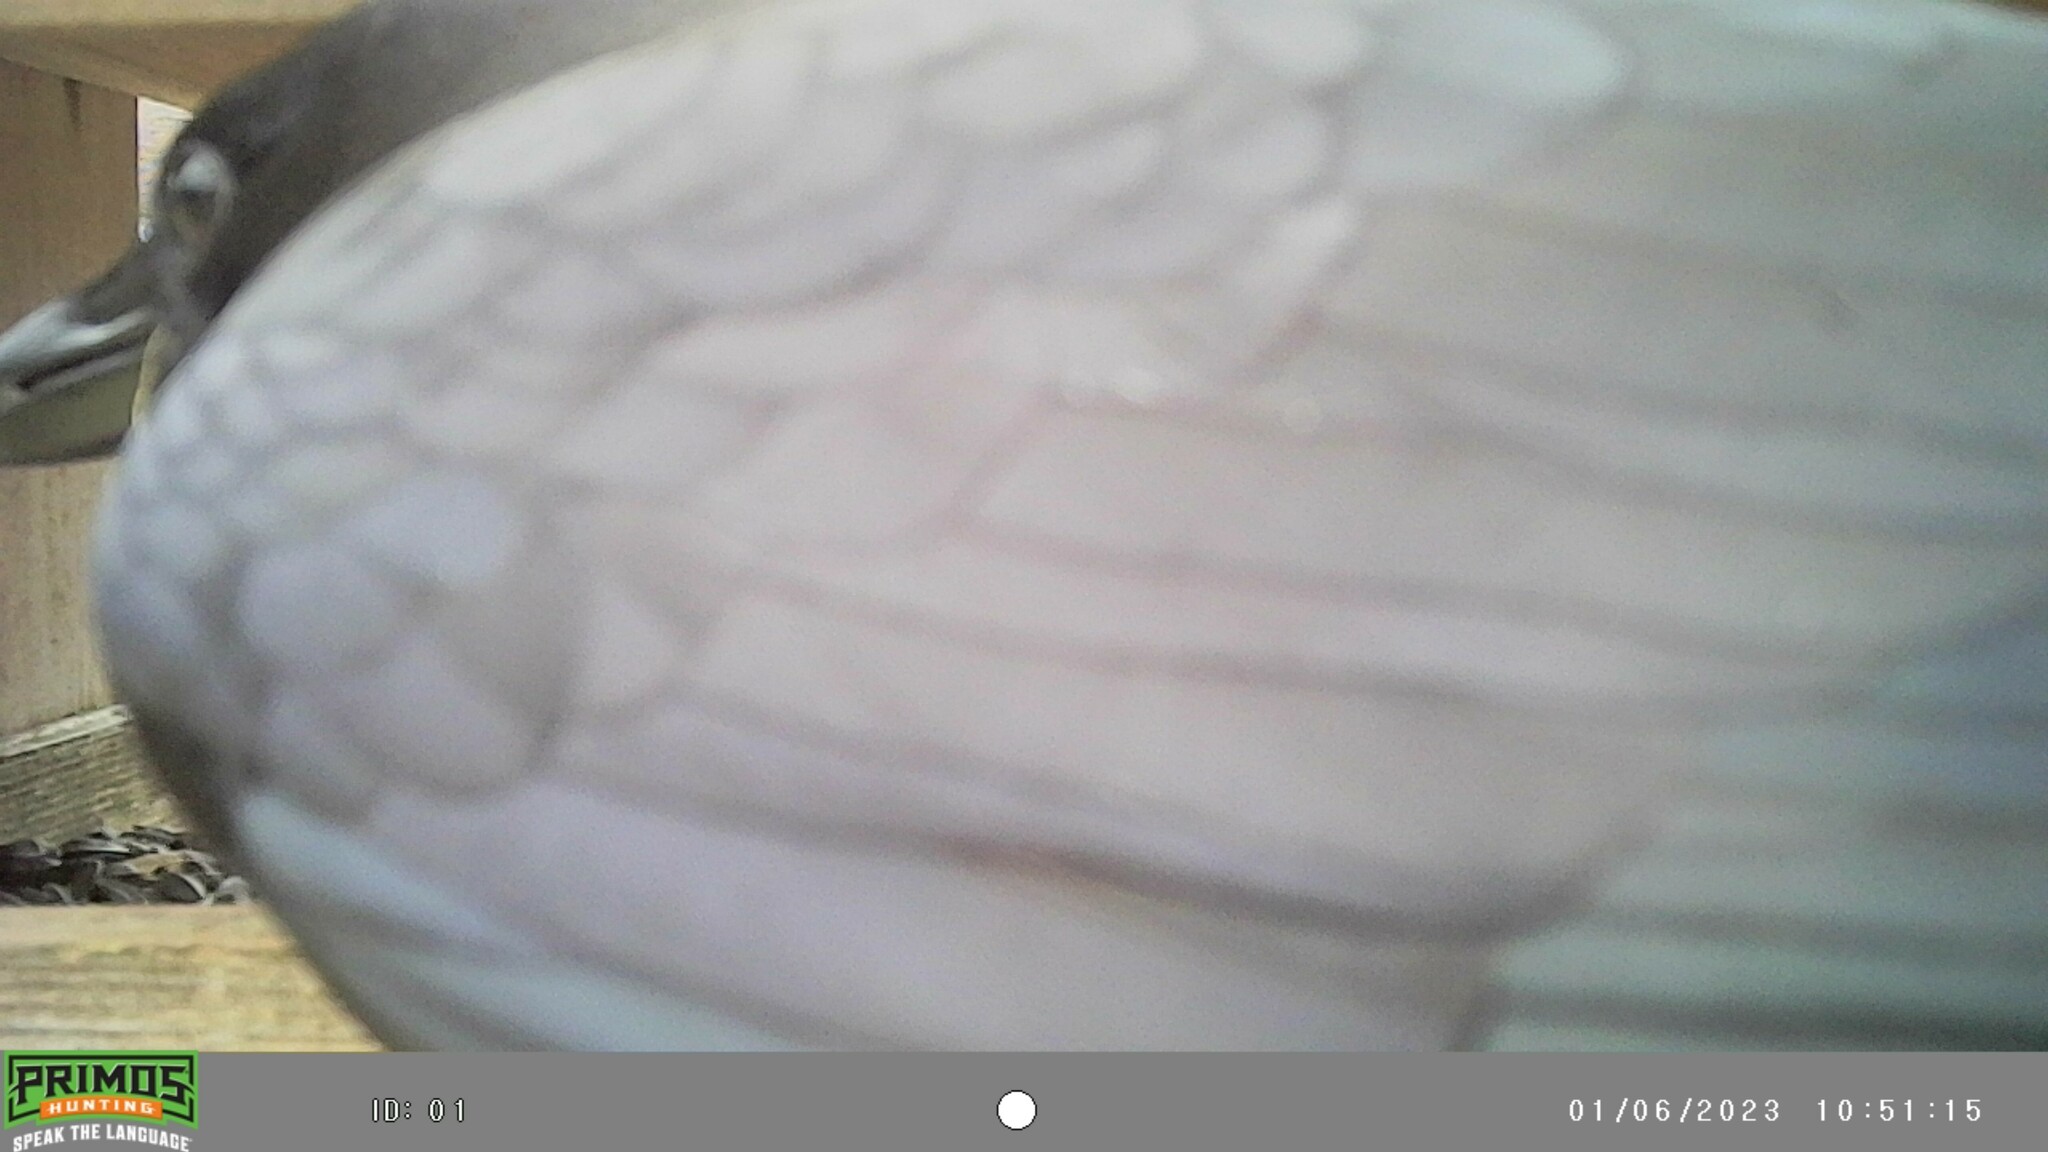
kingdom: Animalia
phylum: Chordata
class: Aves
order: Passeriformes
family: Corvidae
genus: Corvus
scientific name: Corvus brachyrhynchos
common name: American crow
